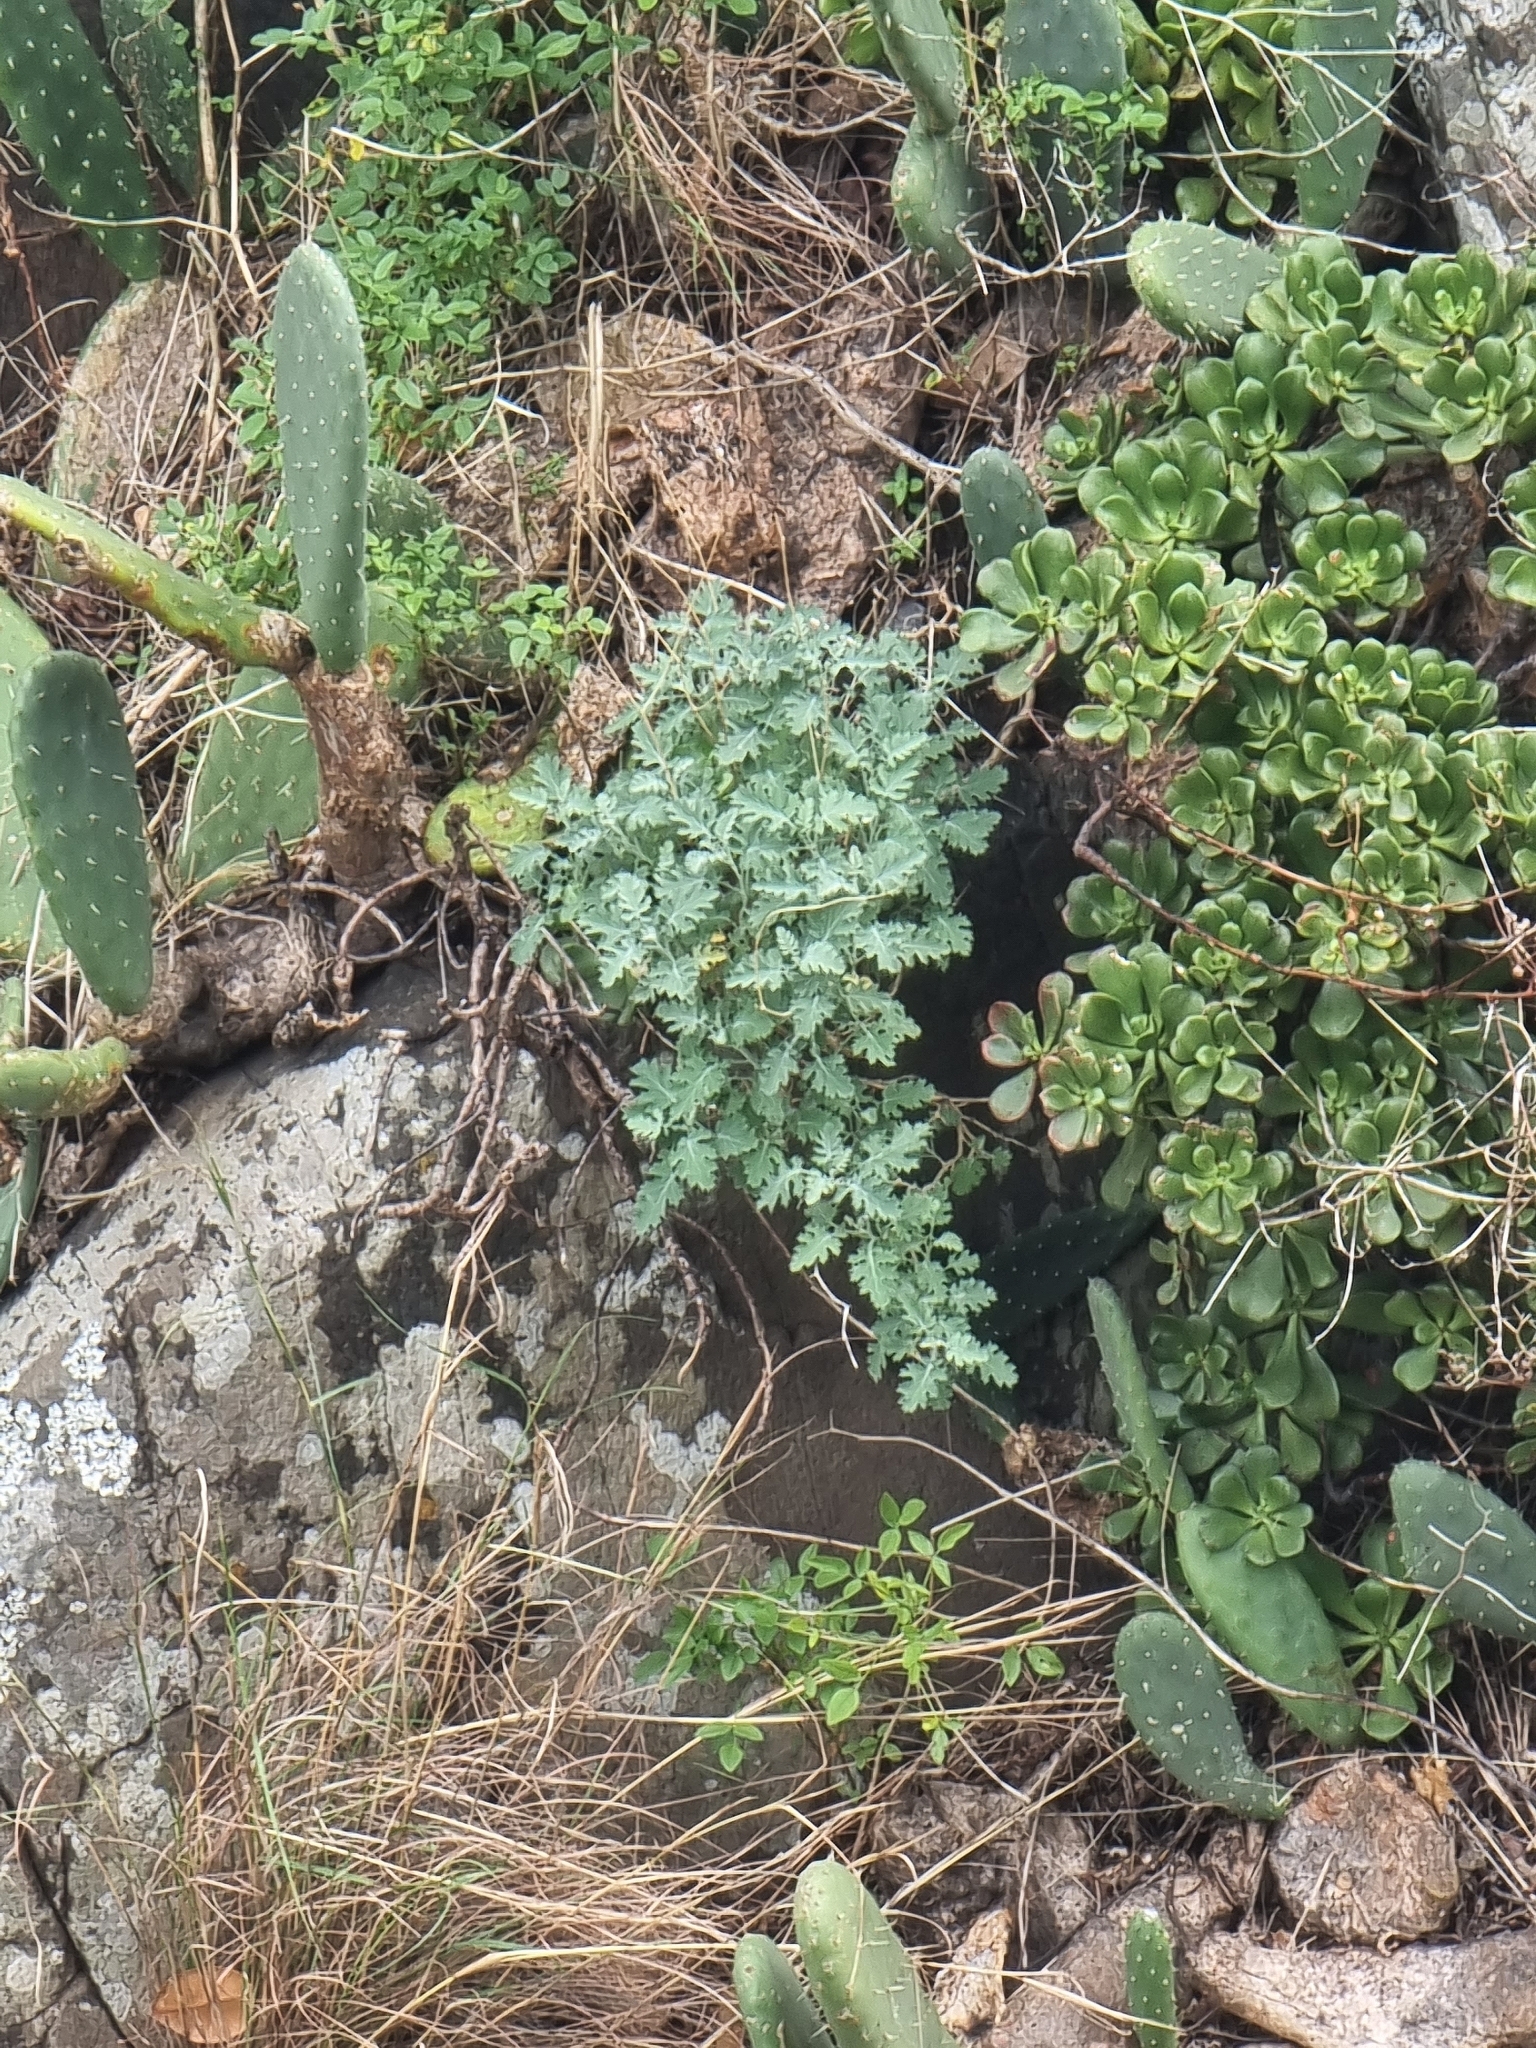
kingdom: Plantae
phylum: Tracheophyta
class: Magnoliopsida
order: Brassicales
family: Brassicaceae
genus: Crambe
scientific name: Crambe fruticosa
